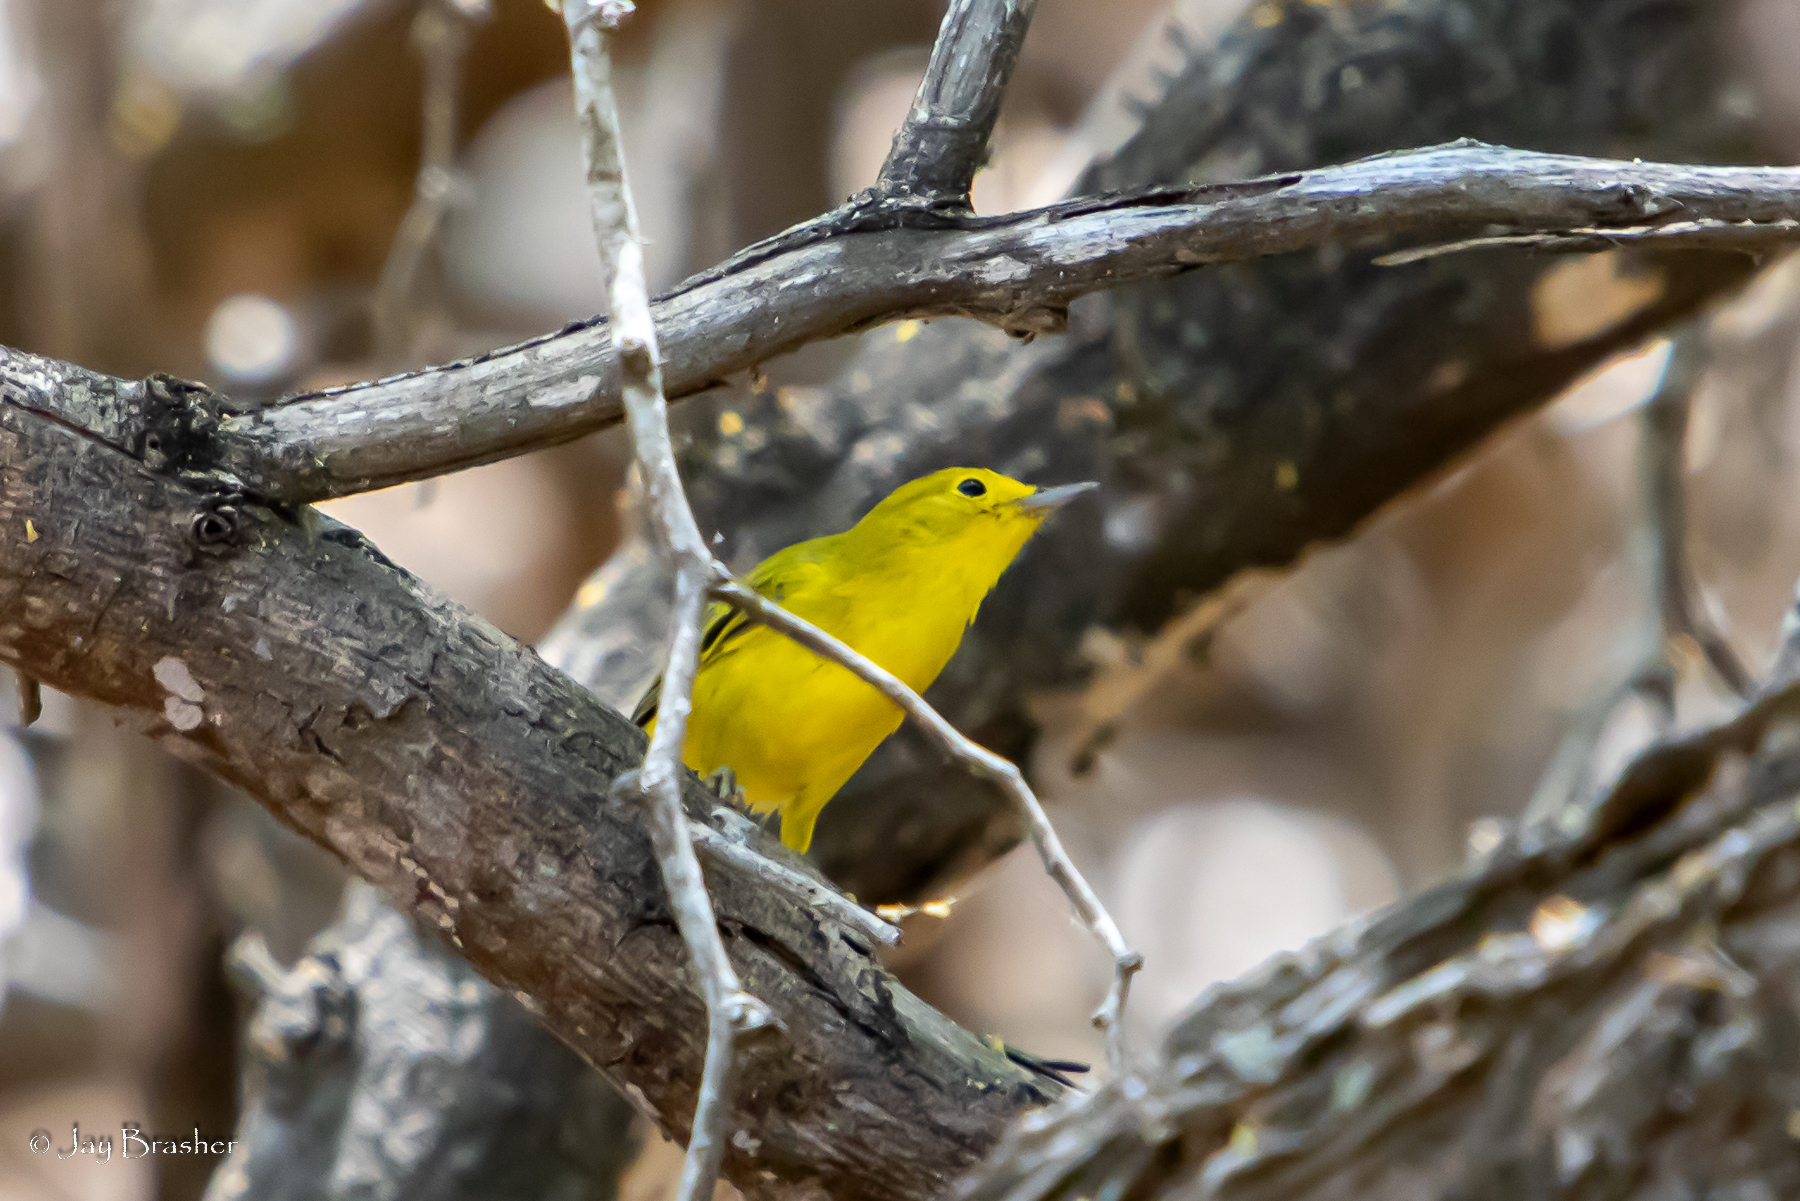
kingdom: Animalia
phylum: Chordata
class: Aves
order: Passeriformes
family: Parulidae
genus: Setophaga
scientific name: Setophaga petechia
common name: Yellow warbler
